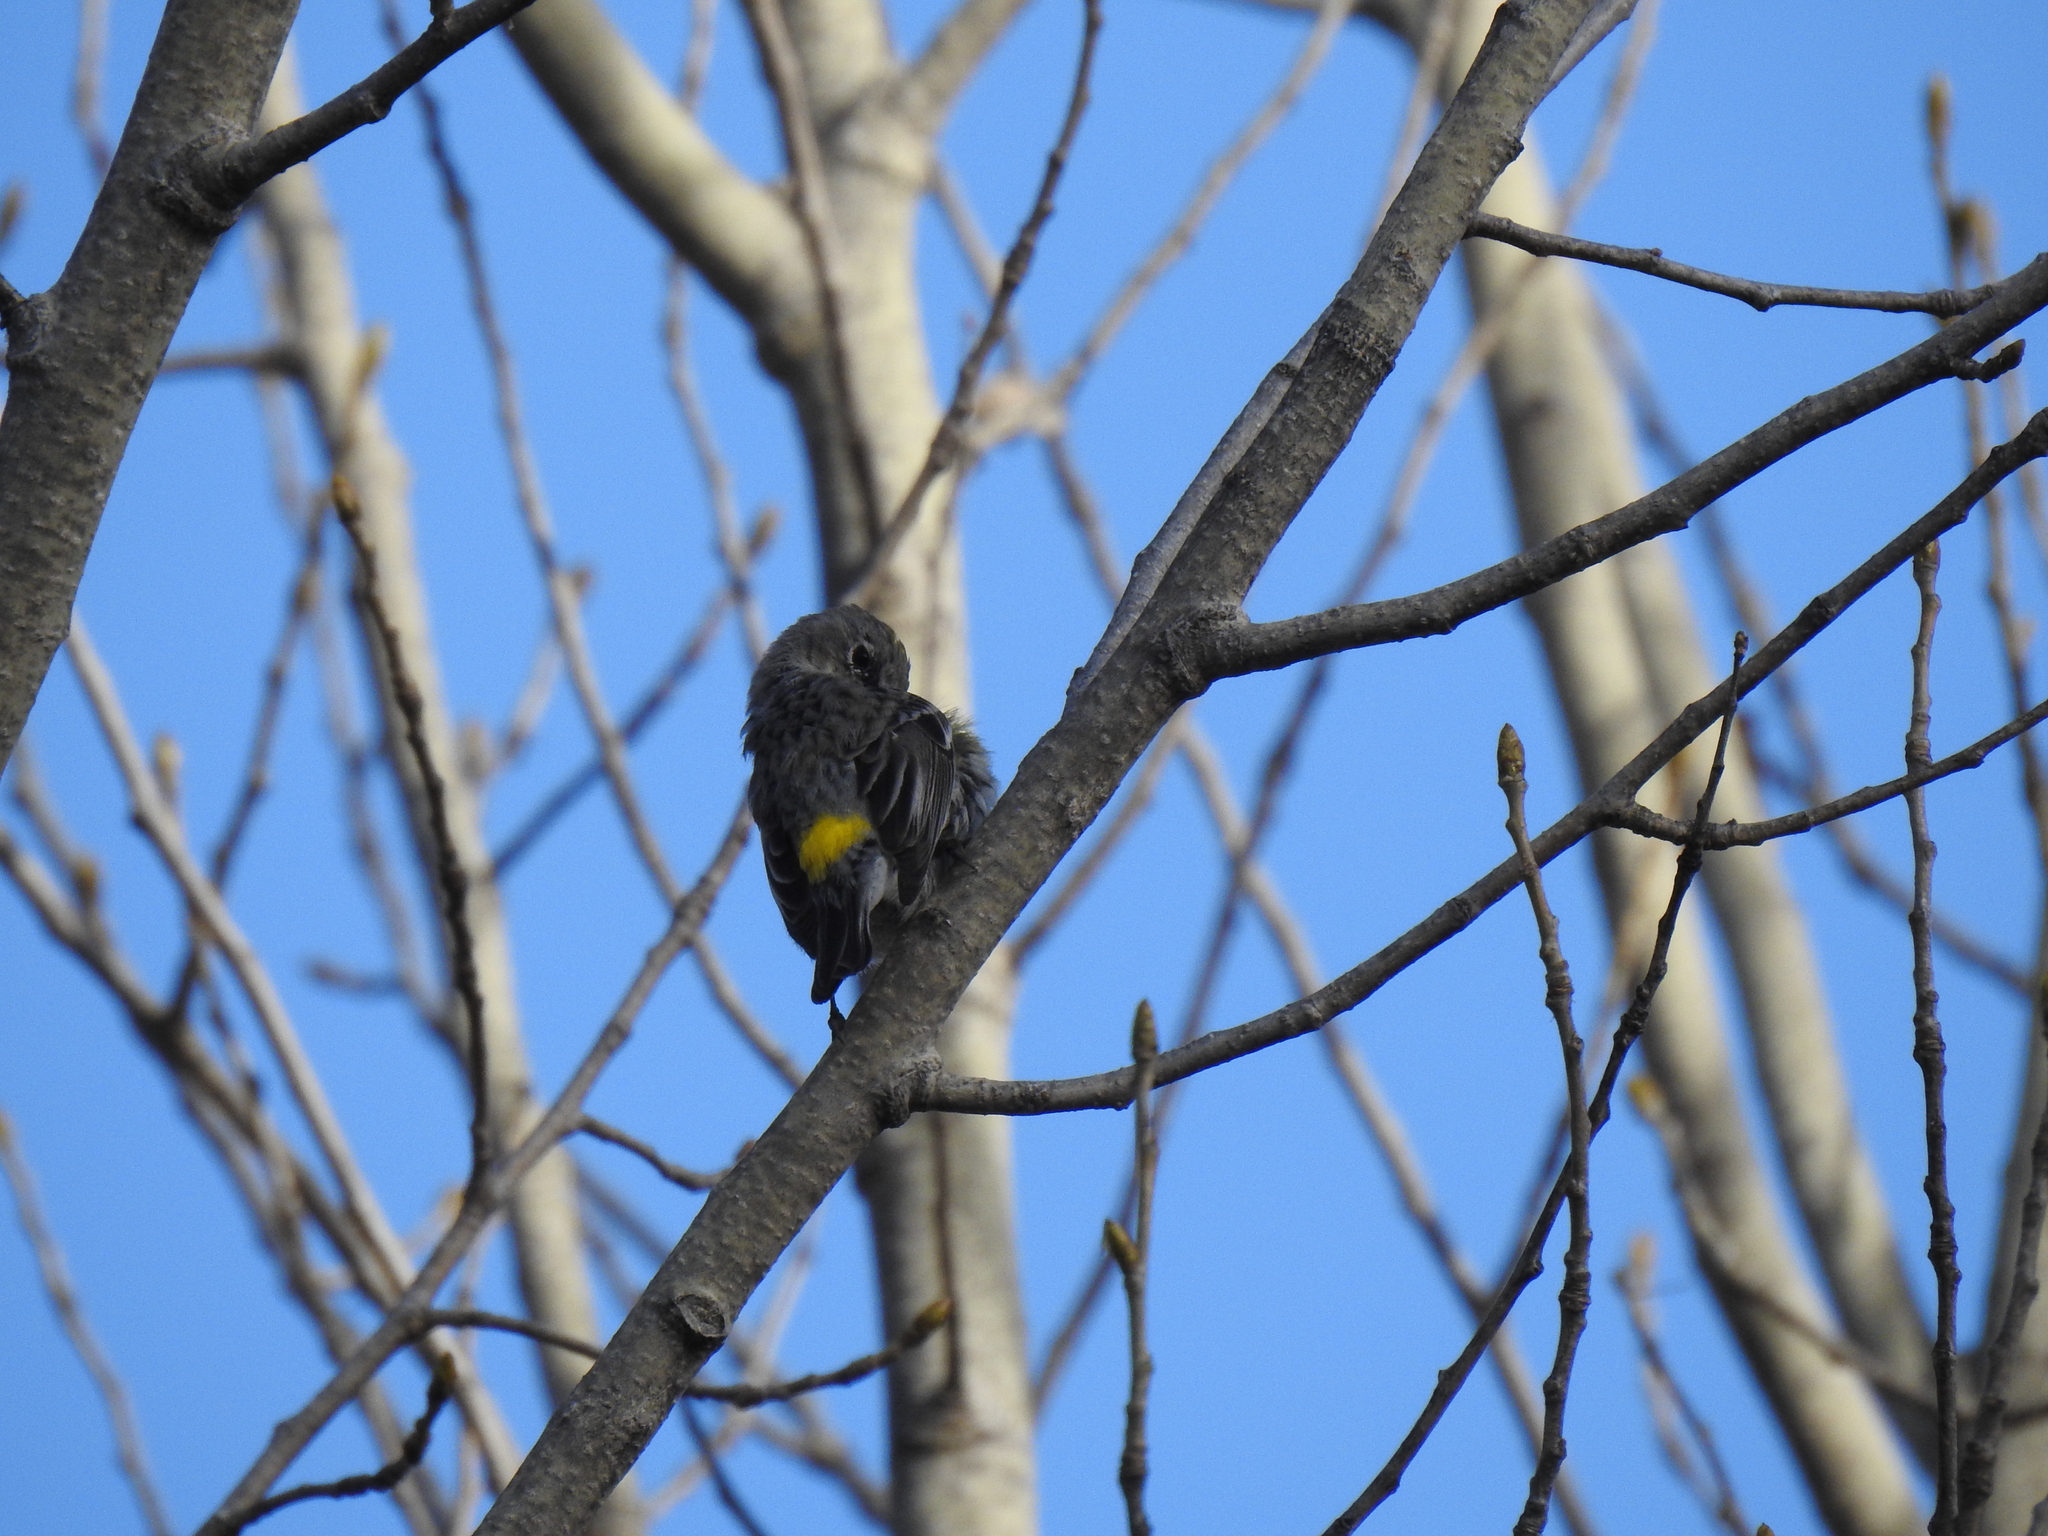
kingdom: Animalia
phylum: Chordata
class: Aves
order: Passeriformes
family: Parulidae
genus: Setophaga
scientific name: Setophaga coronata
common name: Myrtle warbler
